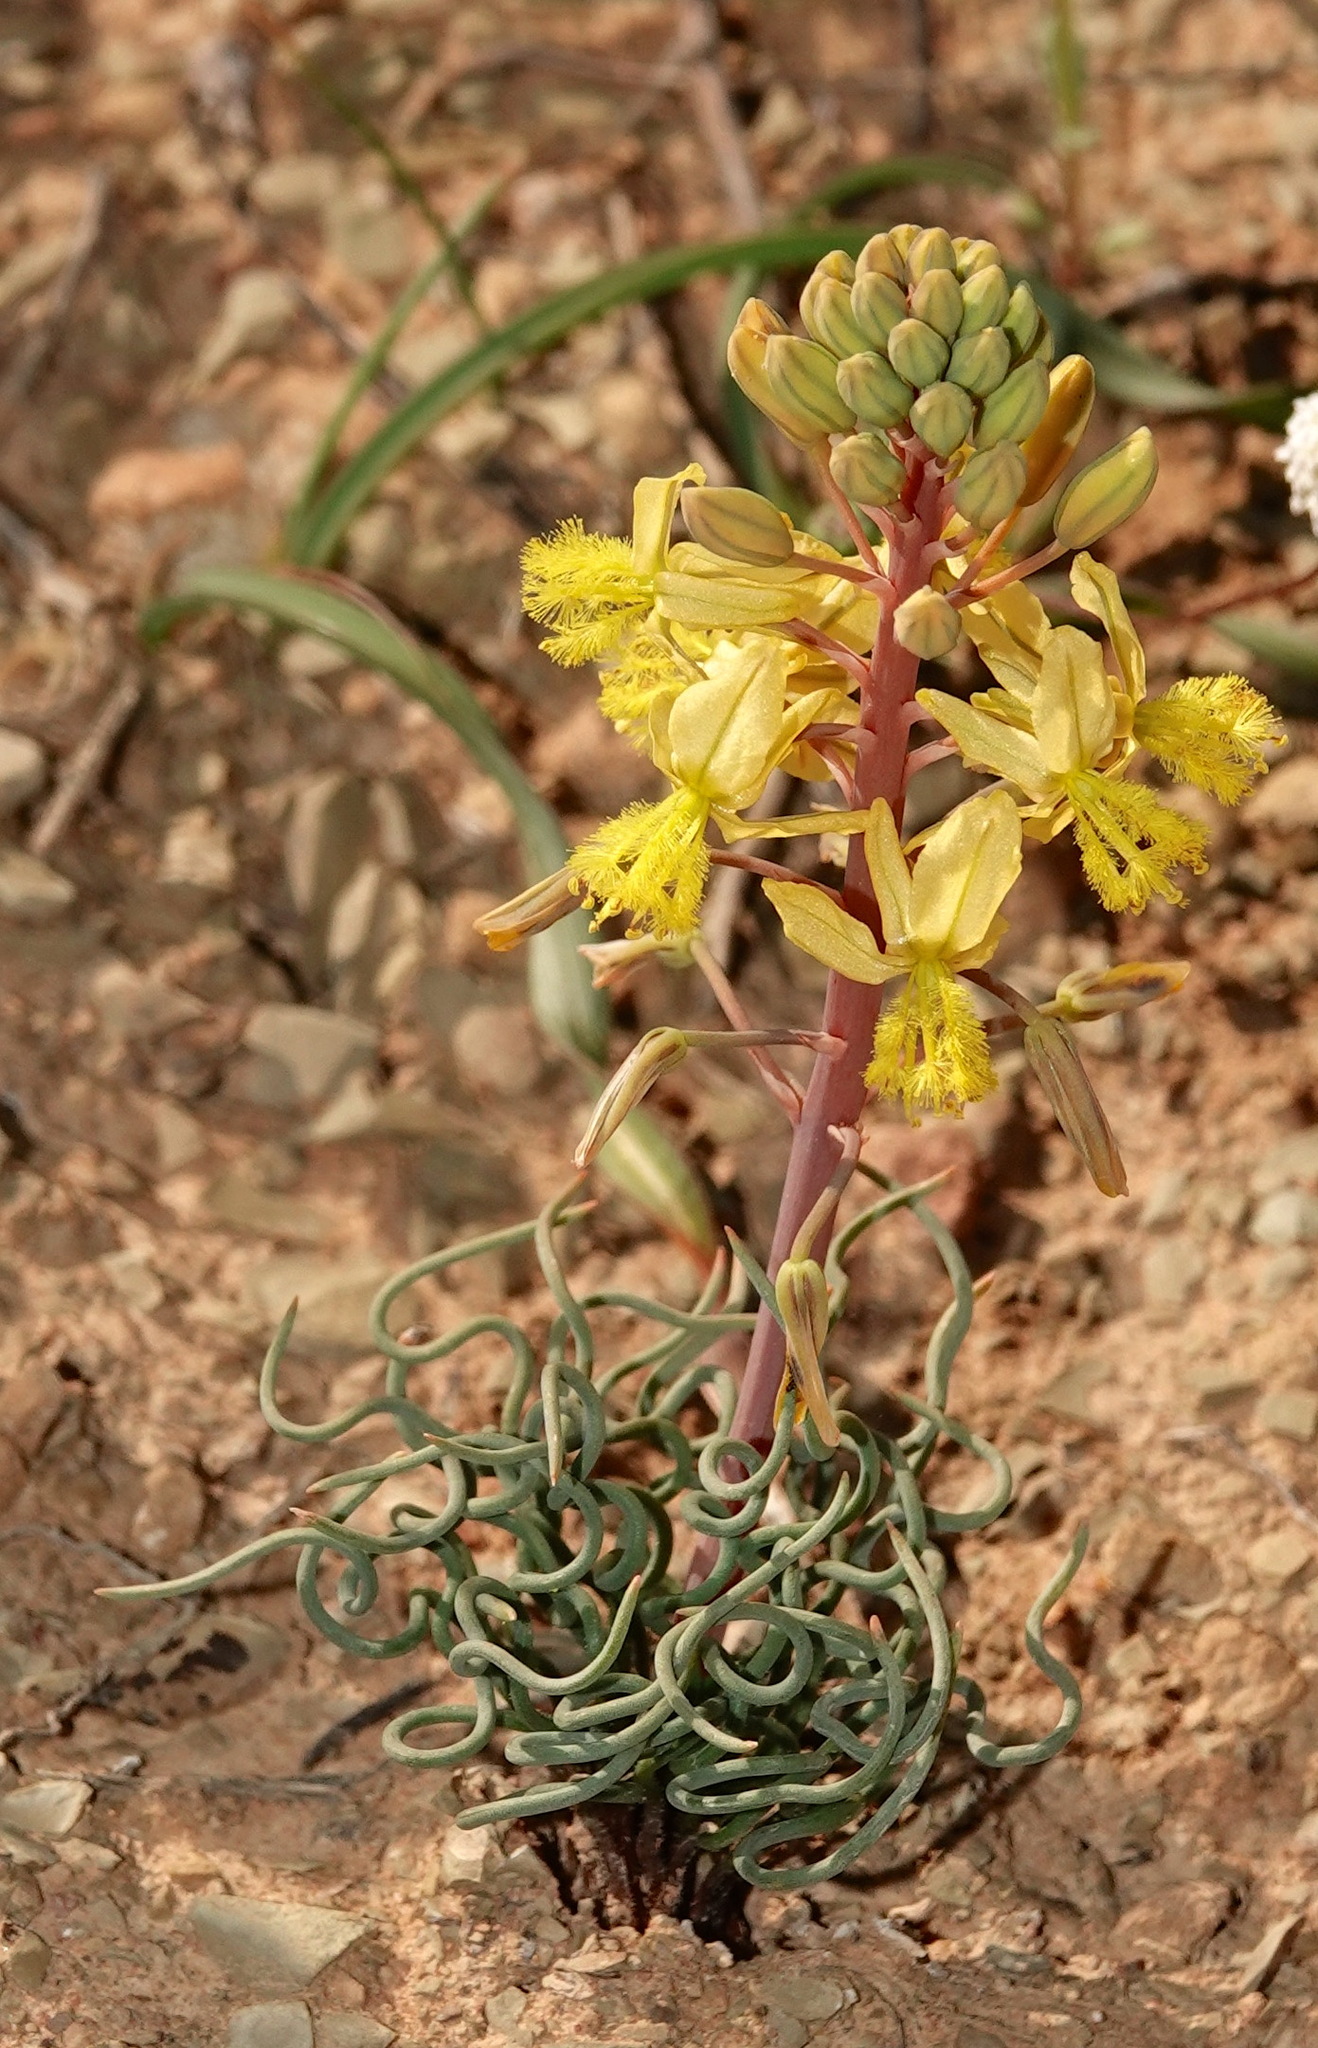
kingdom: Plantae
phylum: Tracheophyta
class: Liliopsida
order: Asparagales
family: Asphodelaceae
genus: Bulbine
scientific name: Bulbine torta
